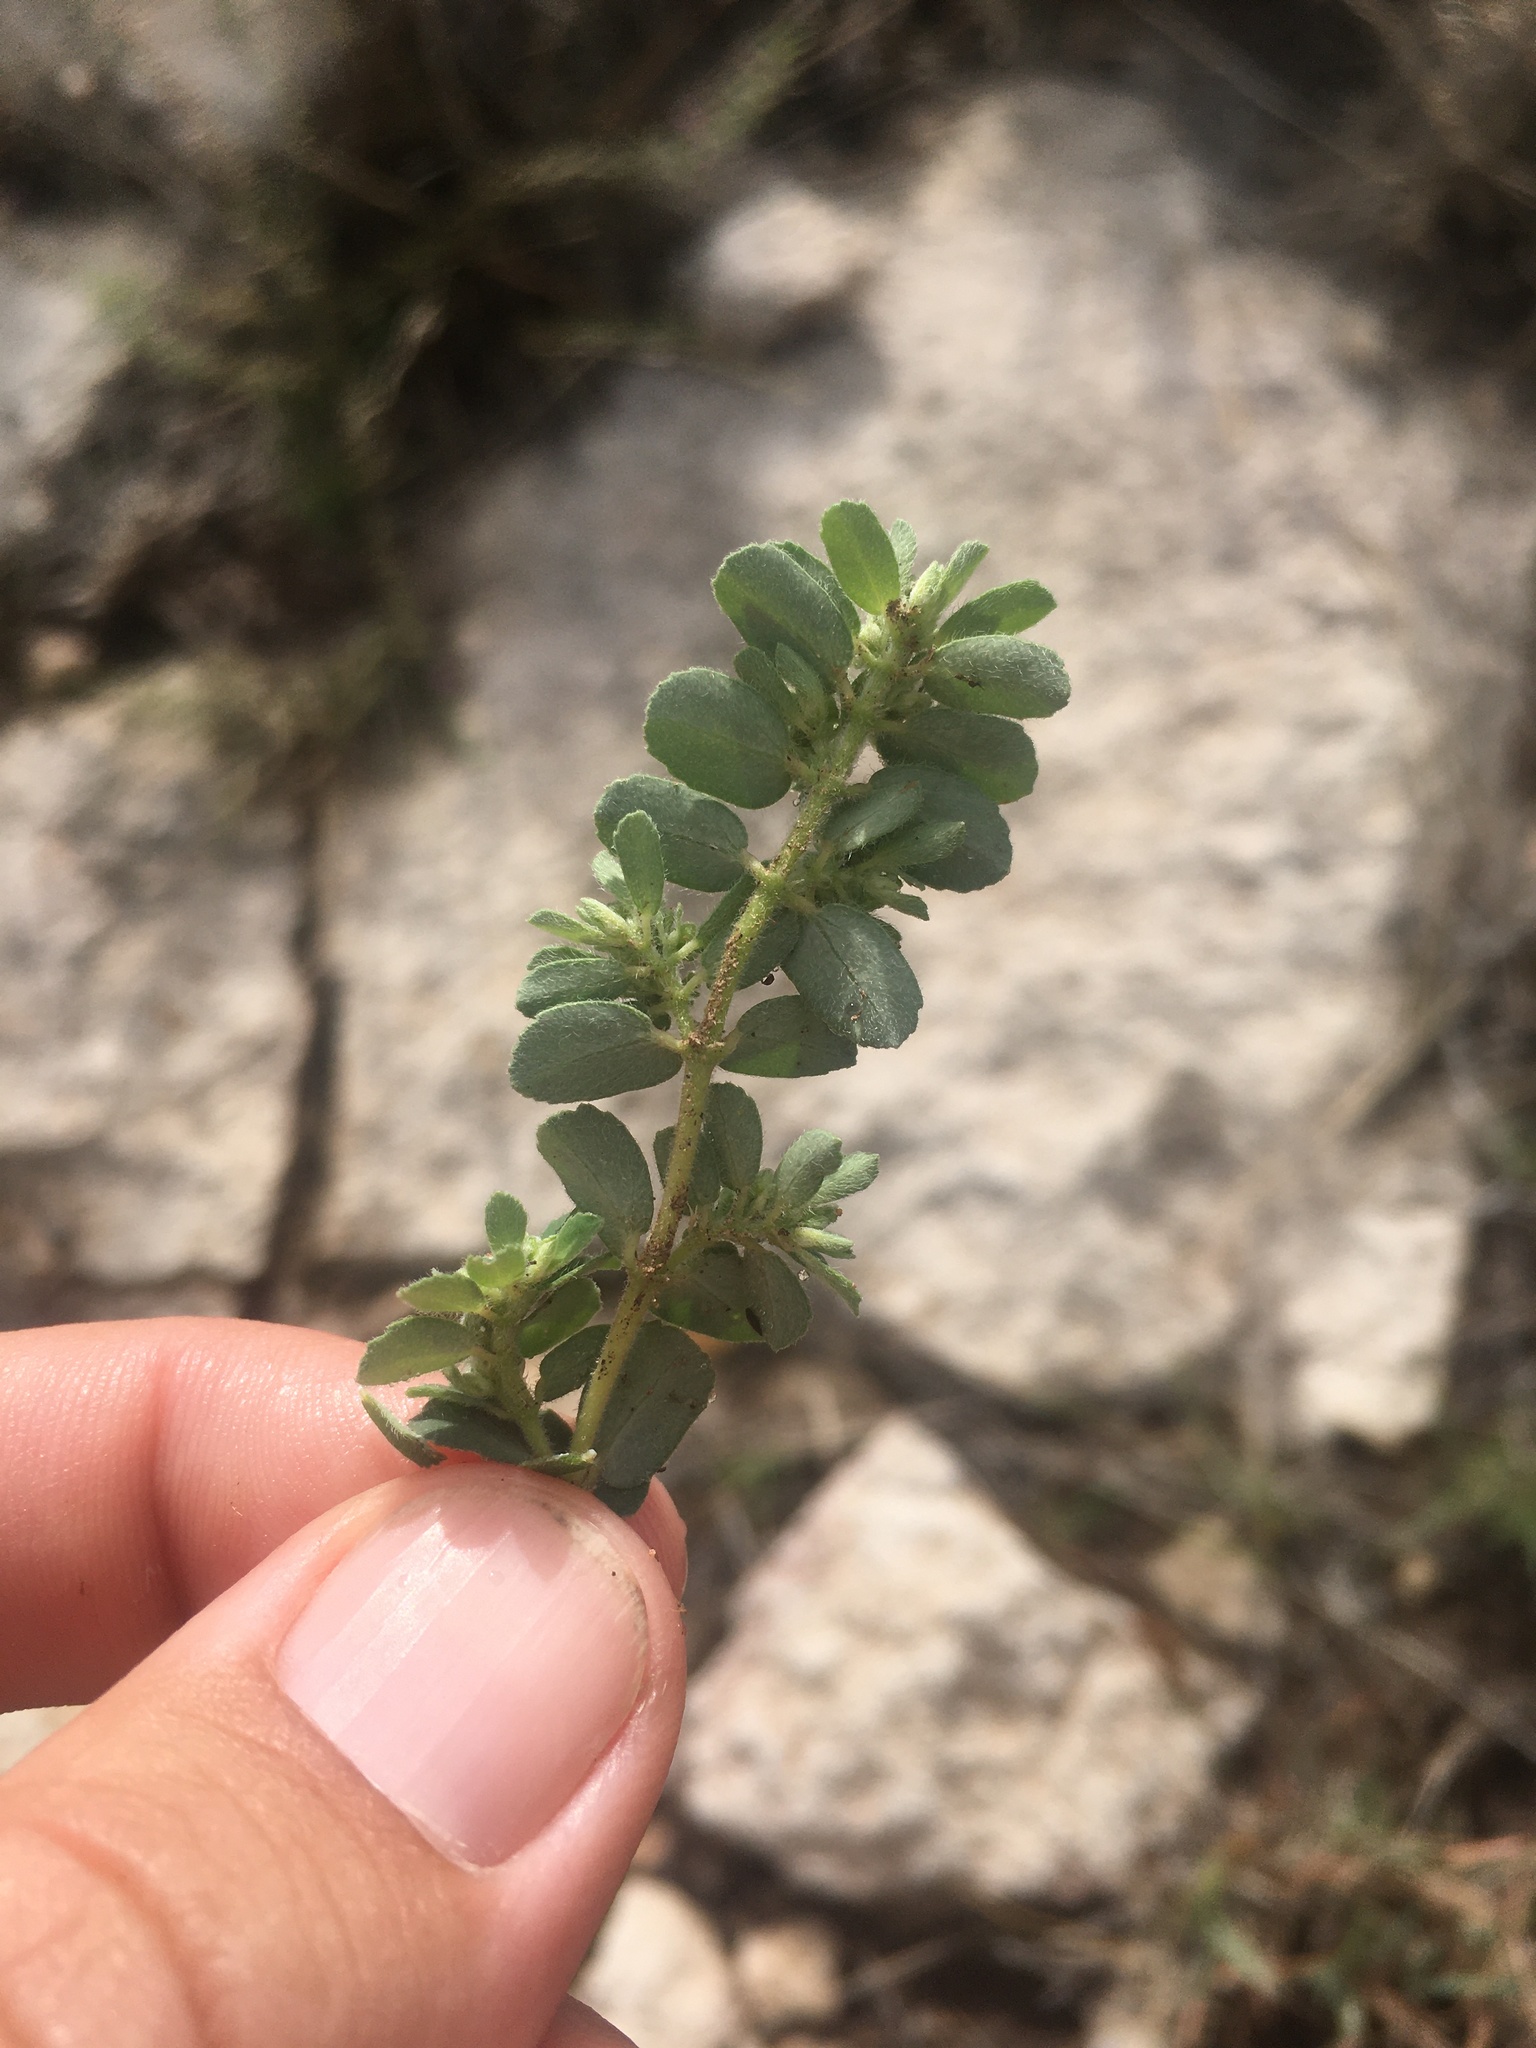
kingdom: Plantae
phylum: Tracheophyta
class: Magnoliopsida
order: Malpighiales
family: Euphorbiaceae
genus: Euphorbia
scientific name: Euphorbia stictospora
